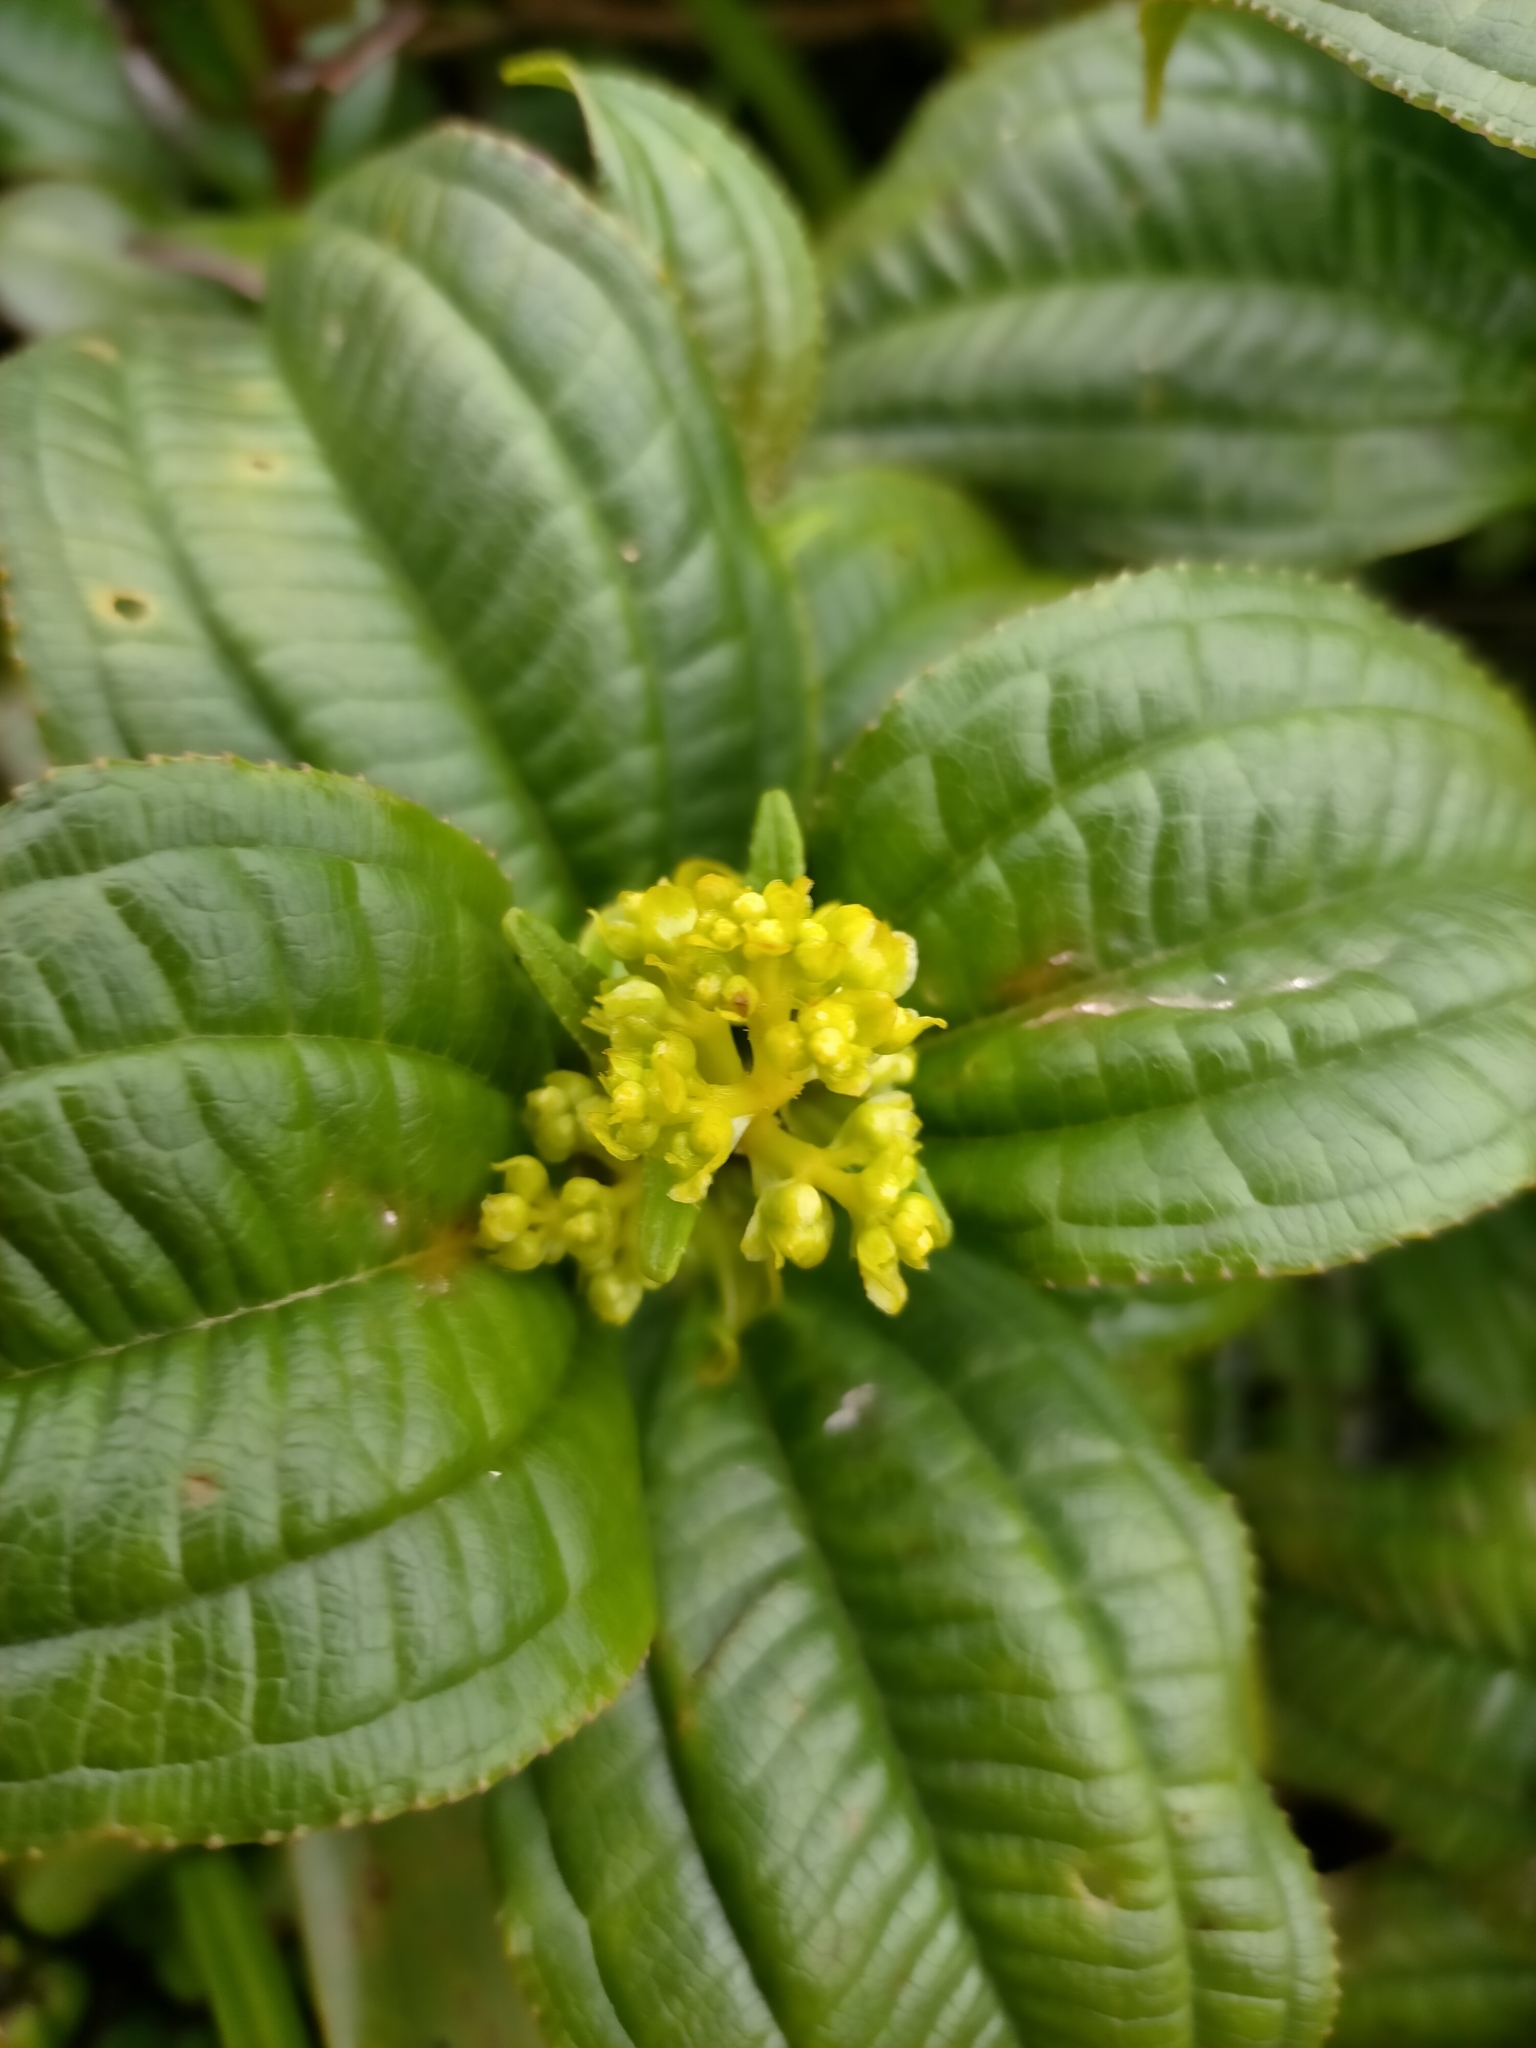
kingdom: Plantae
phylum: Tracheophyta
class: Magnoliopsida
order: Myrtales
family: Melastomataceae
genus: Miconia
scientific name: Miconia corymbosa
